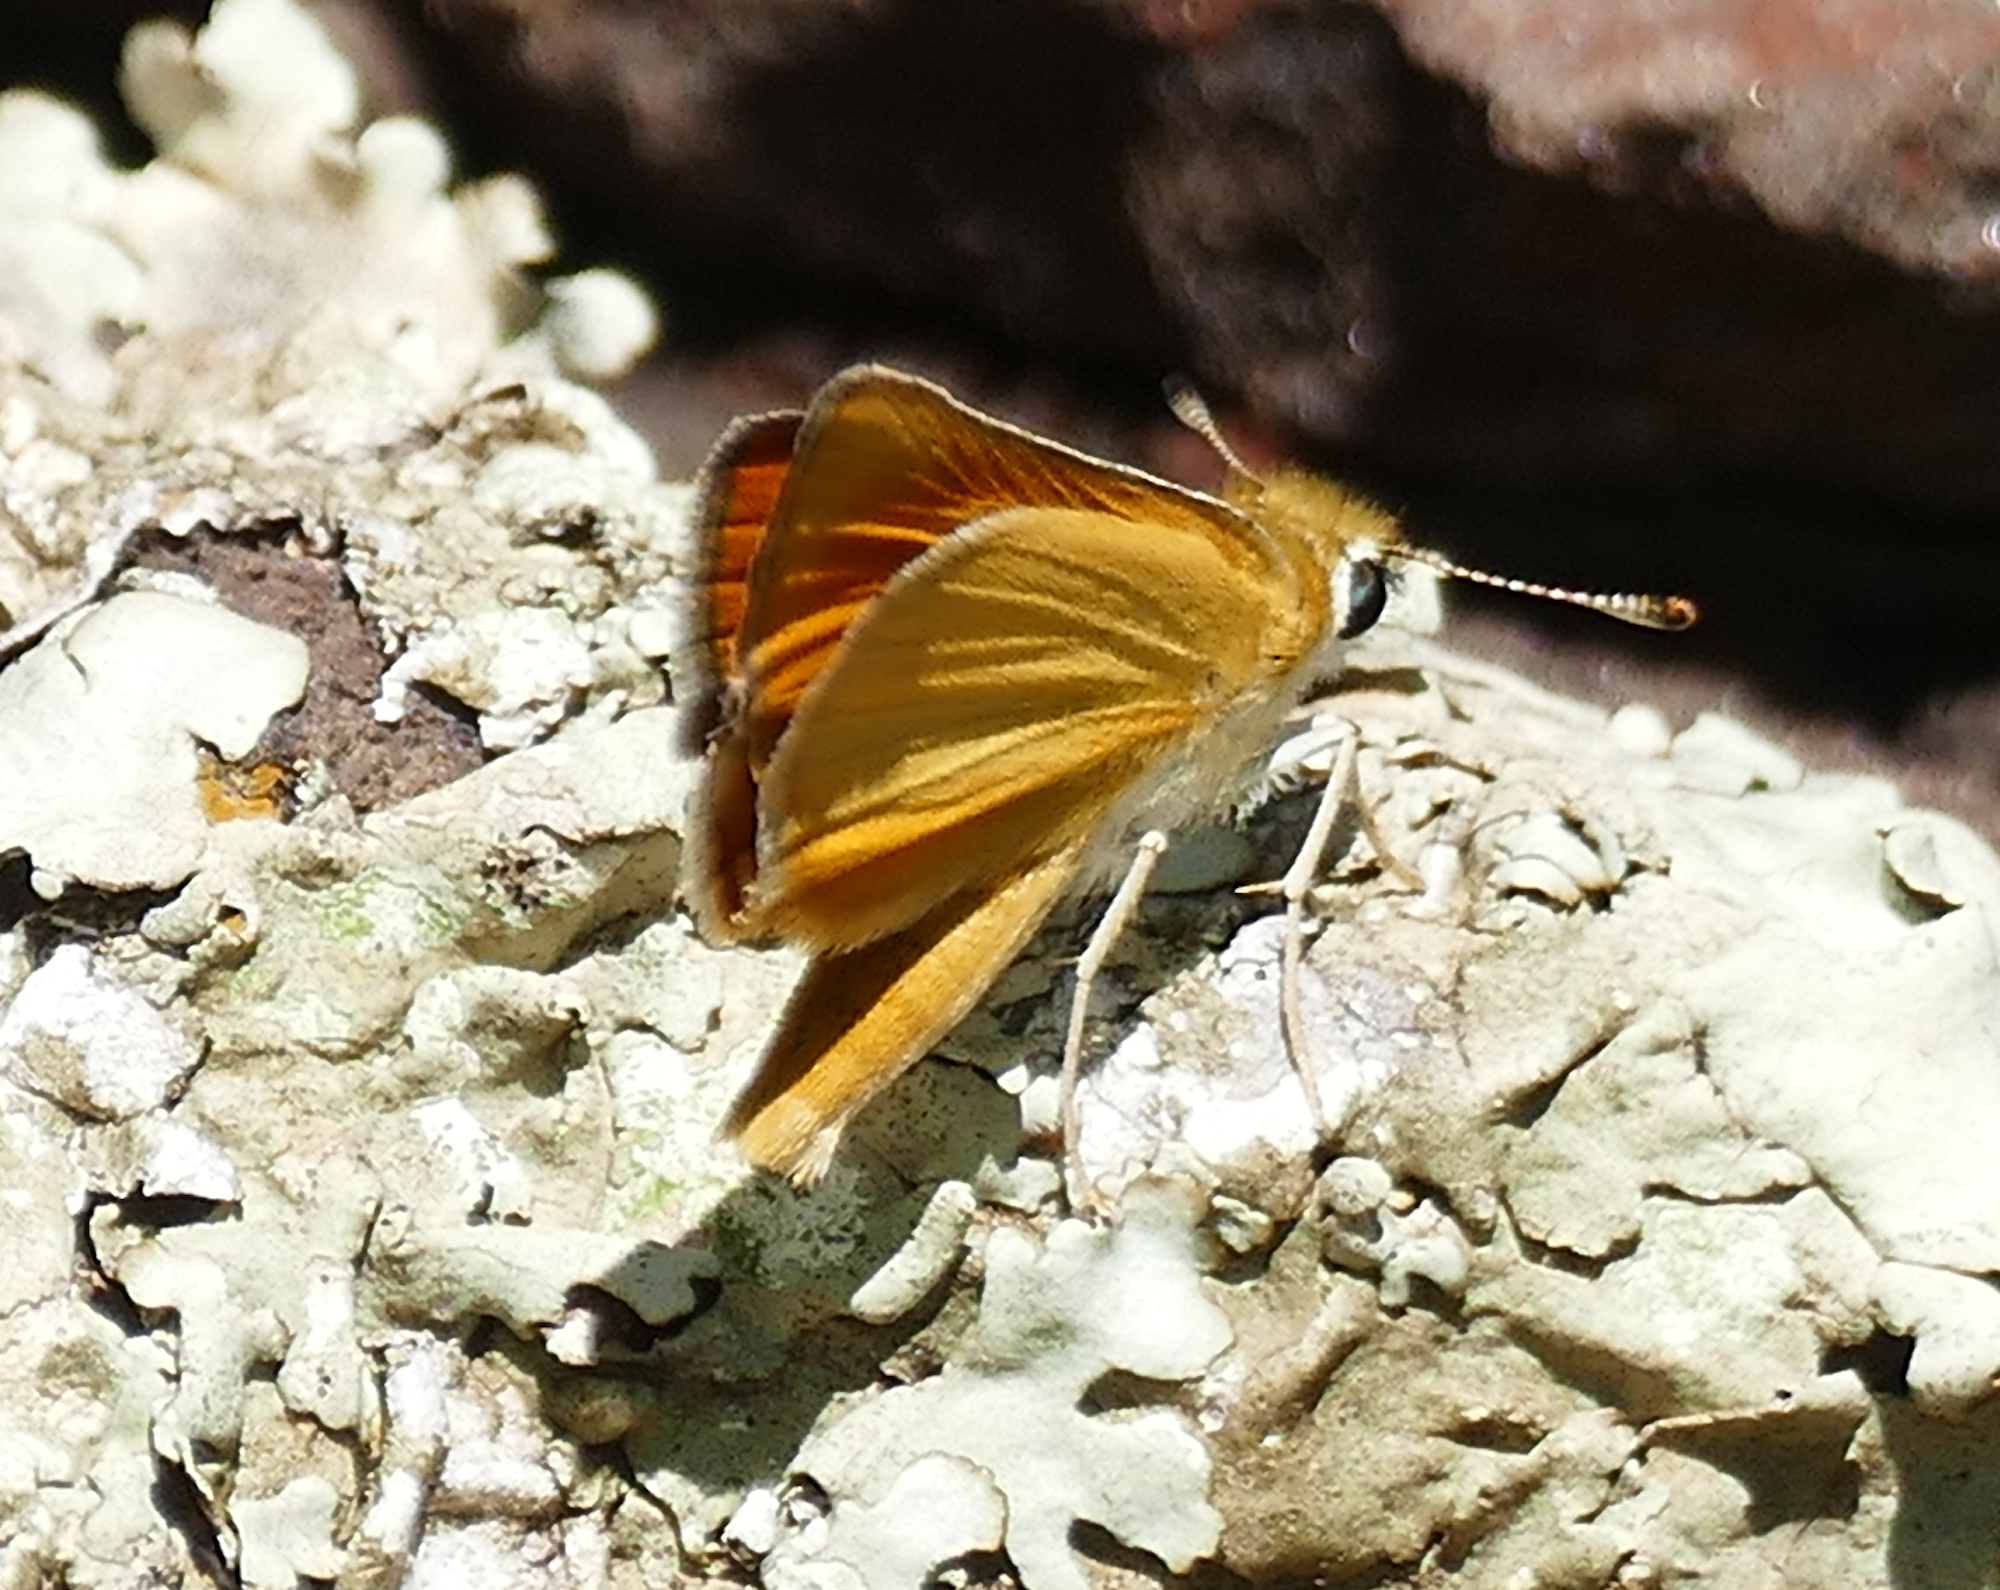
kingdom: Animalia
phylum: Arthropoda
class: Insecta
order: Lepidoptera
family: Hesperiidae
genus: Copaeodes
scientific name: Copaeodes aurantiaca
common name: Orange skipperling
